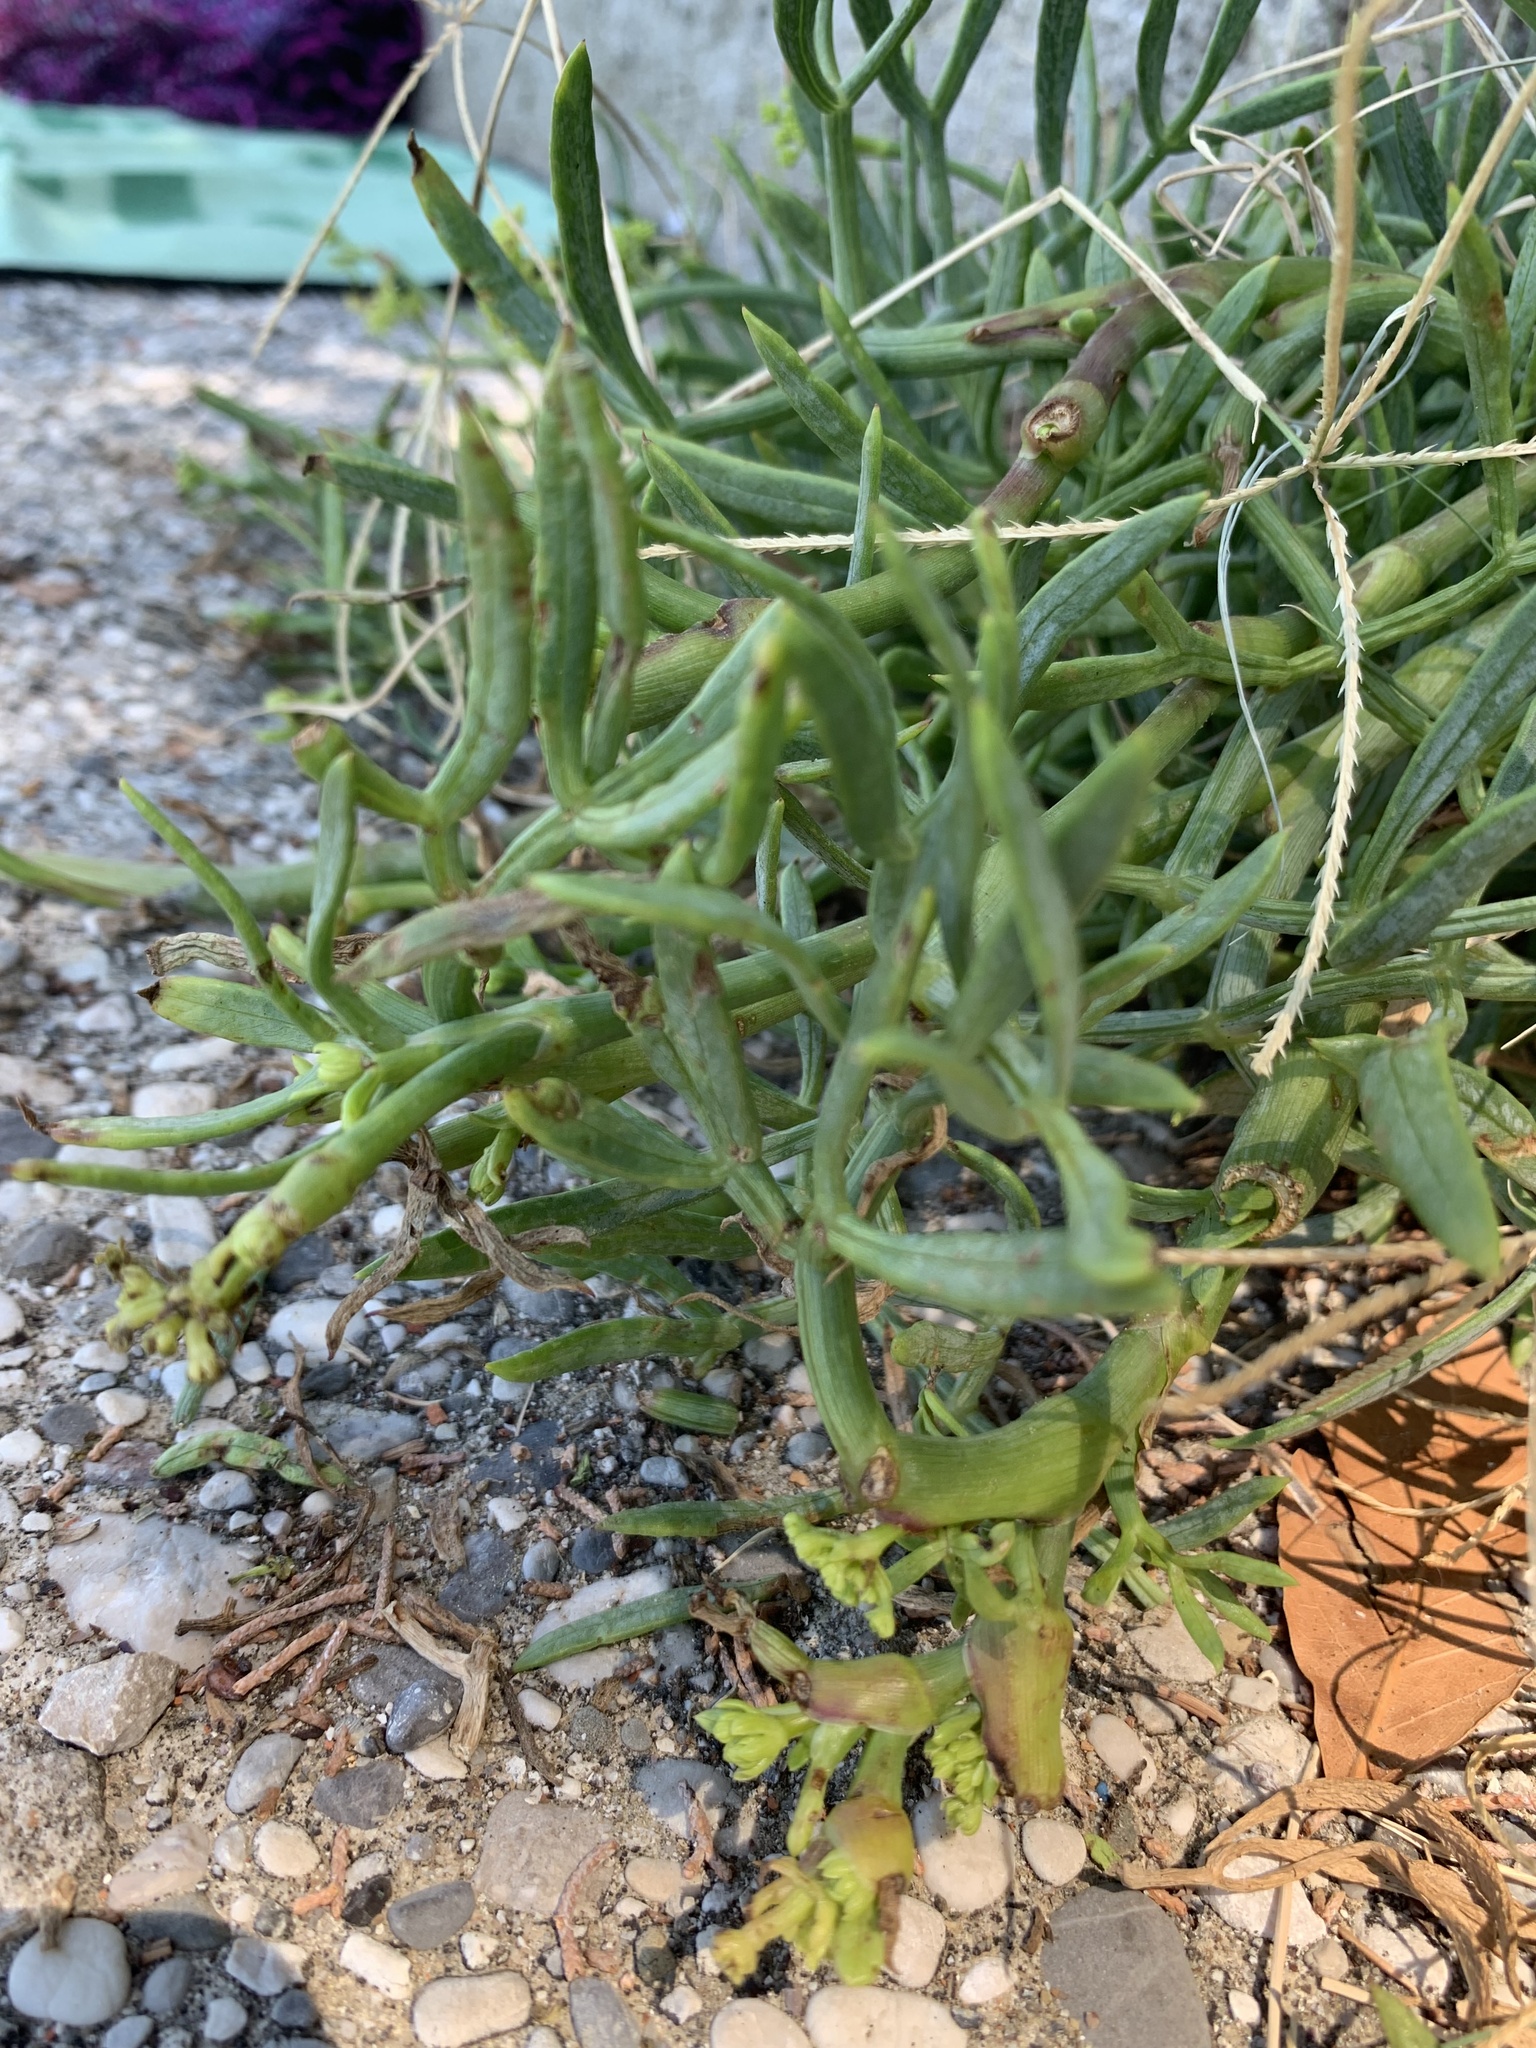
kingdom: Plantae
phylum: Tracheophyta
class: Magnoliopsida
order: Apiales
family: Apiaceae
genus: Crithmum
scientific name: Crithmum maritimum
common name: Rock samphire
